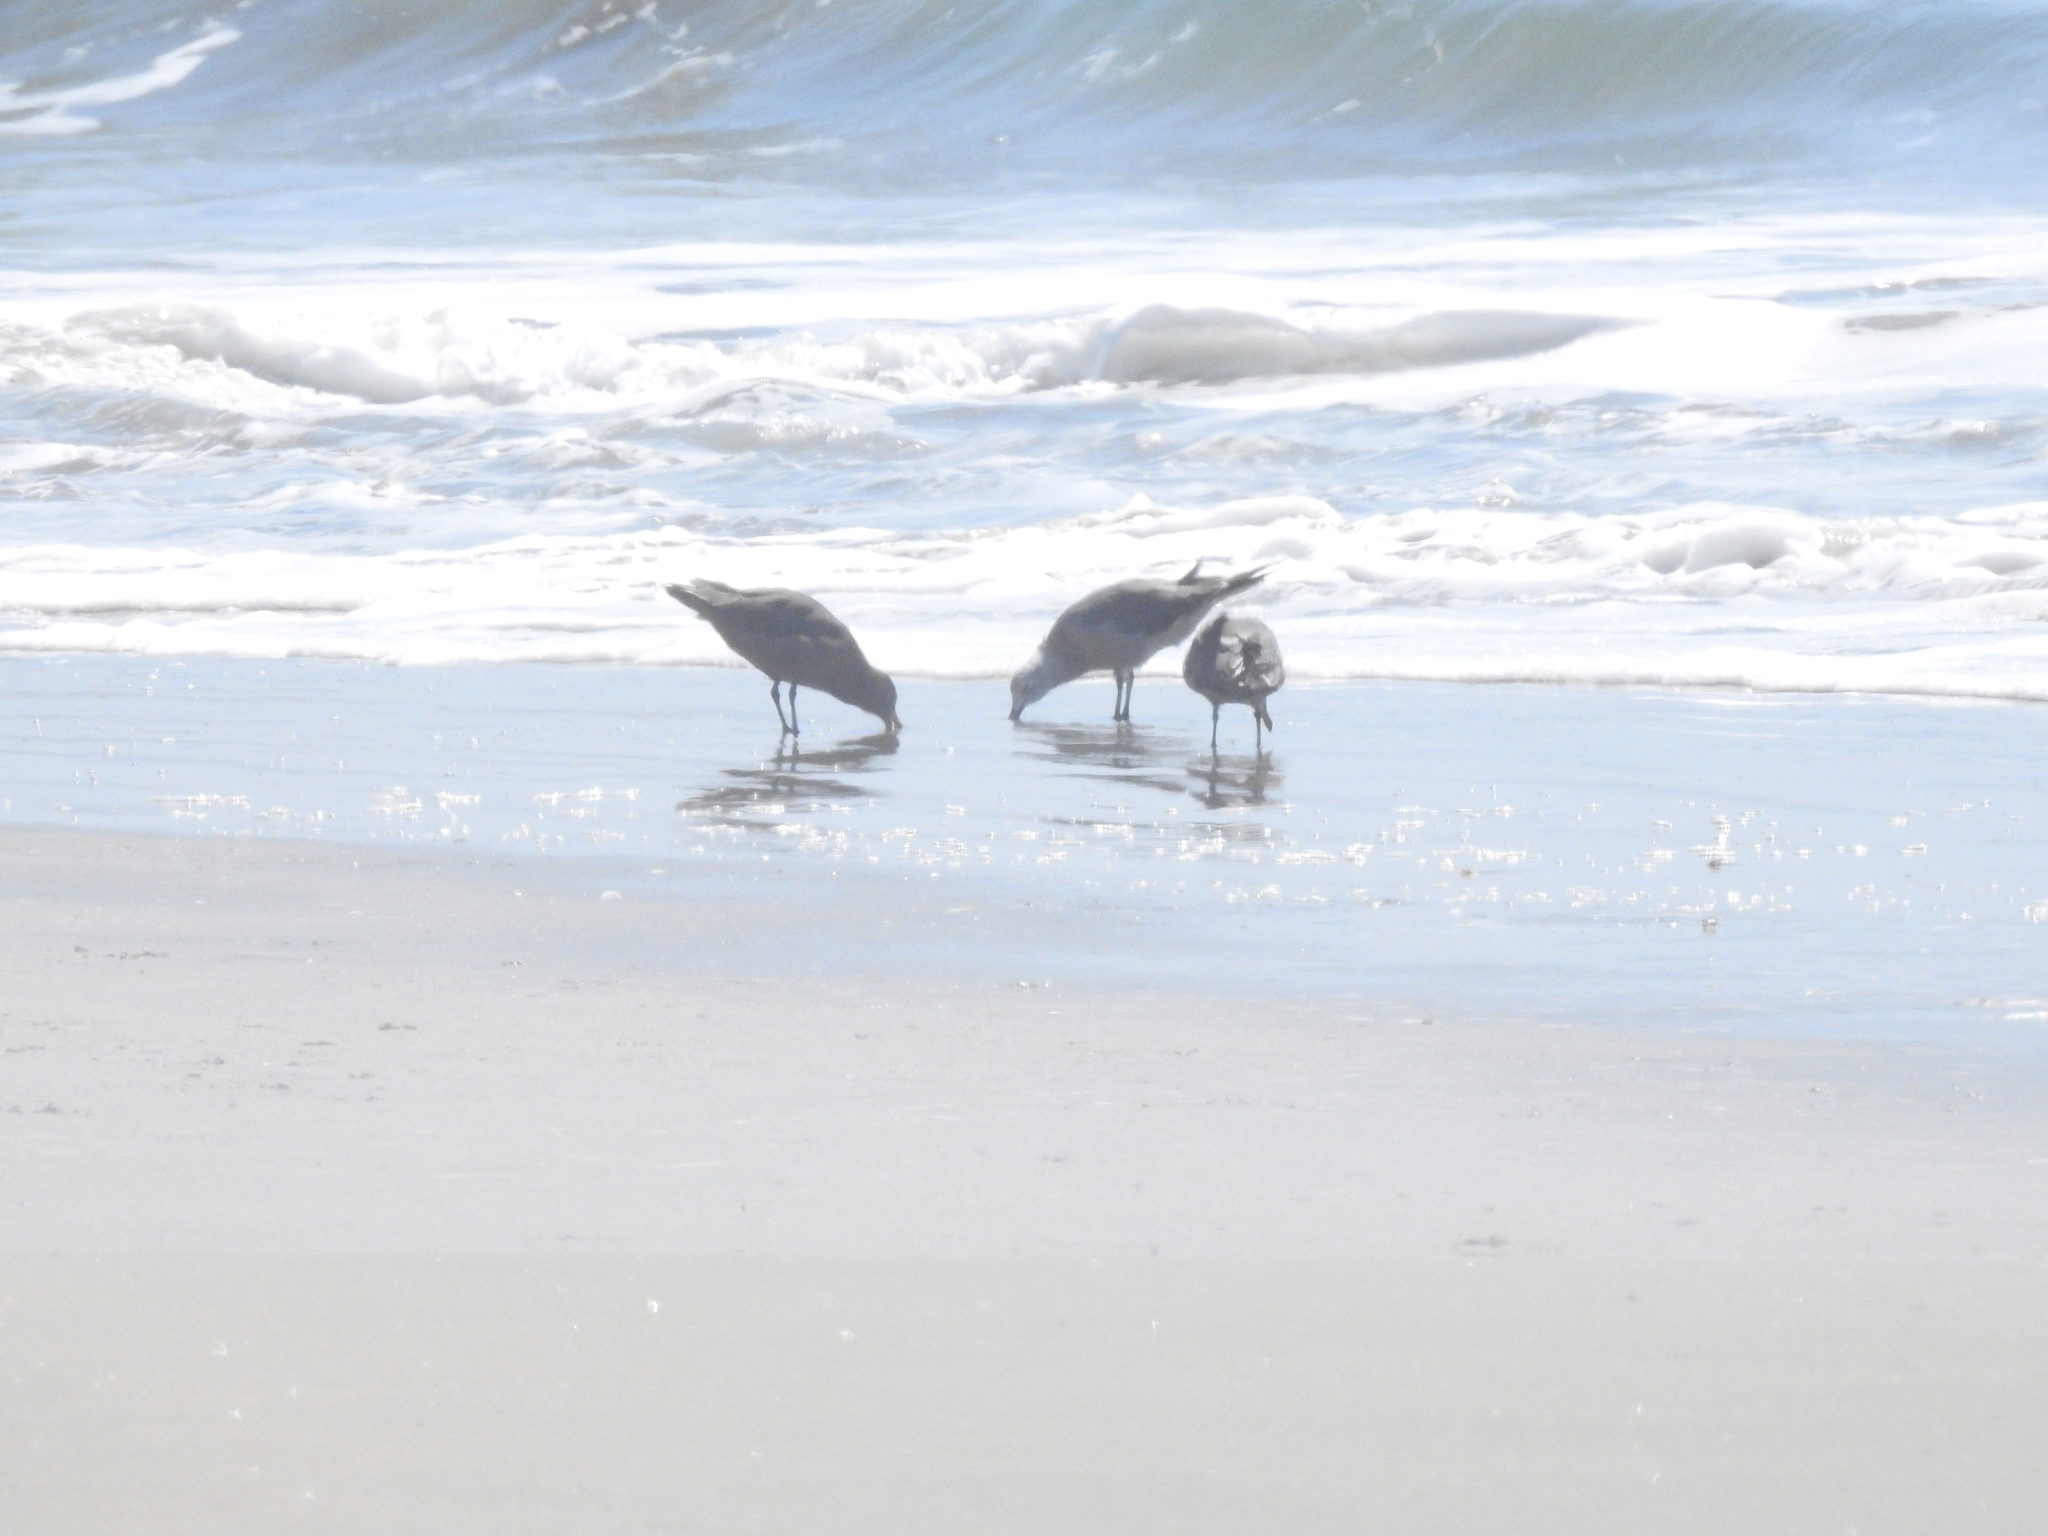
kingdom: Animalia
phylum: Chordata
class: Aves
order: Charadriiformes
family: Laridae
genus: Larus
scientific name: Larus heermanni
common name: Heermann's gull
